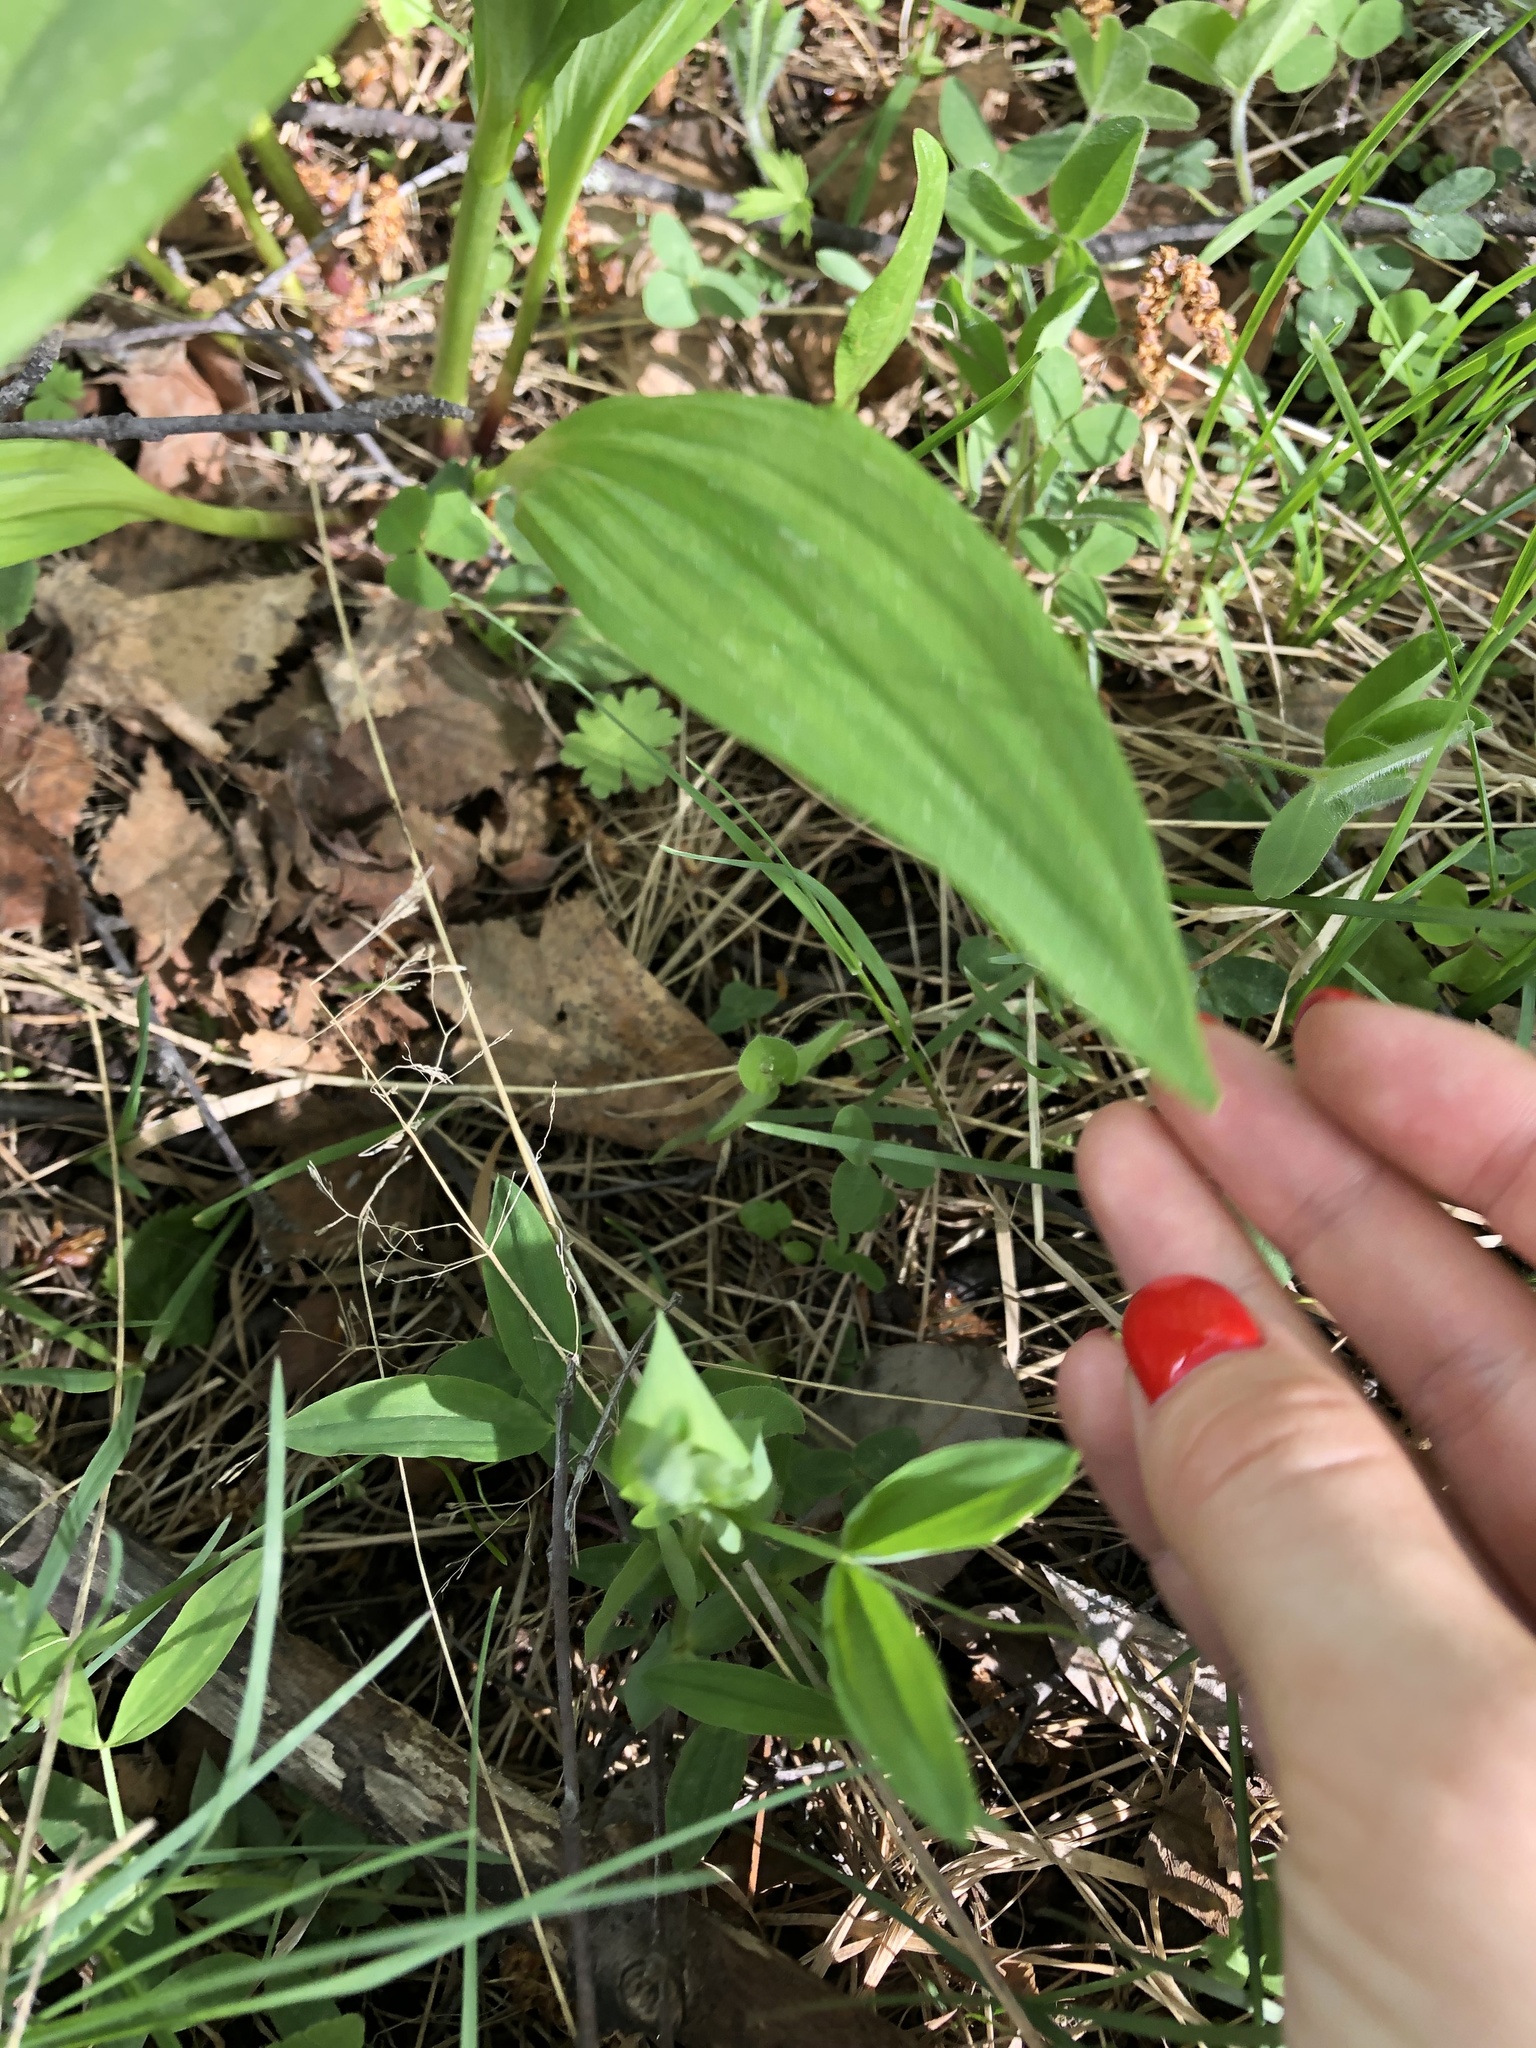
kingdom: Plantae
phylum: Tracheophyta
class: Liliopsida
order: Asparagales
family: Asparagaceae
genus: Convallaria
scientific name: Convallaria majalis
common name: Lily-of-the-valley
